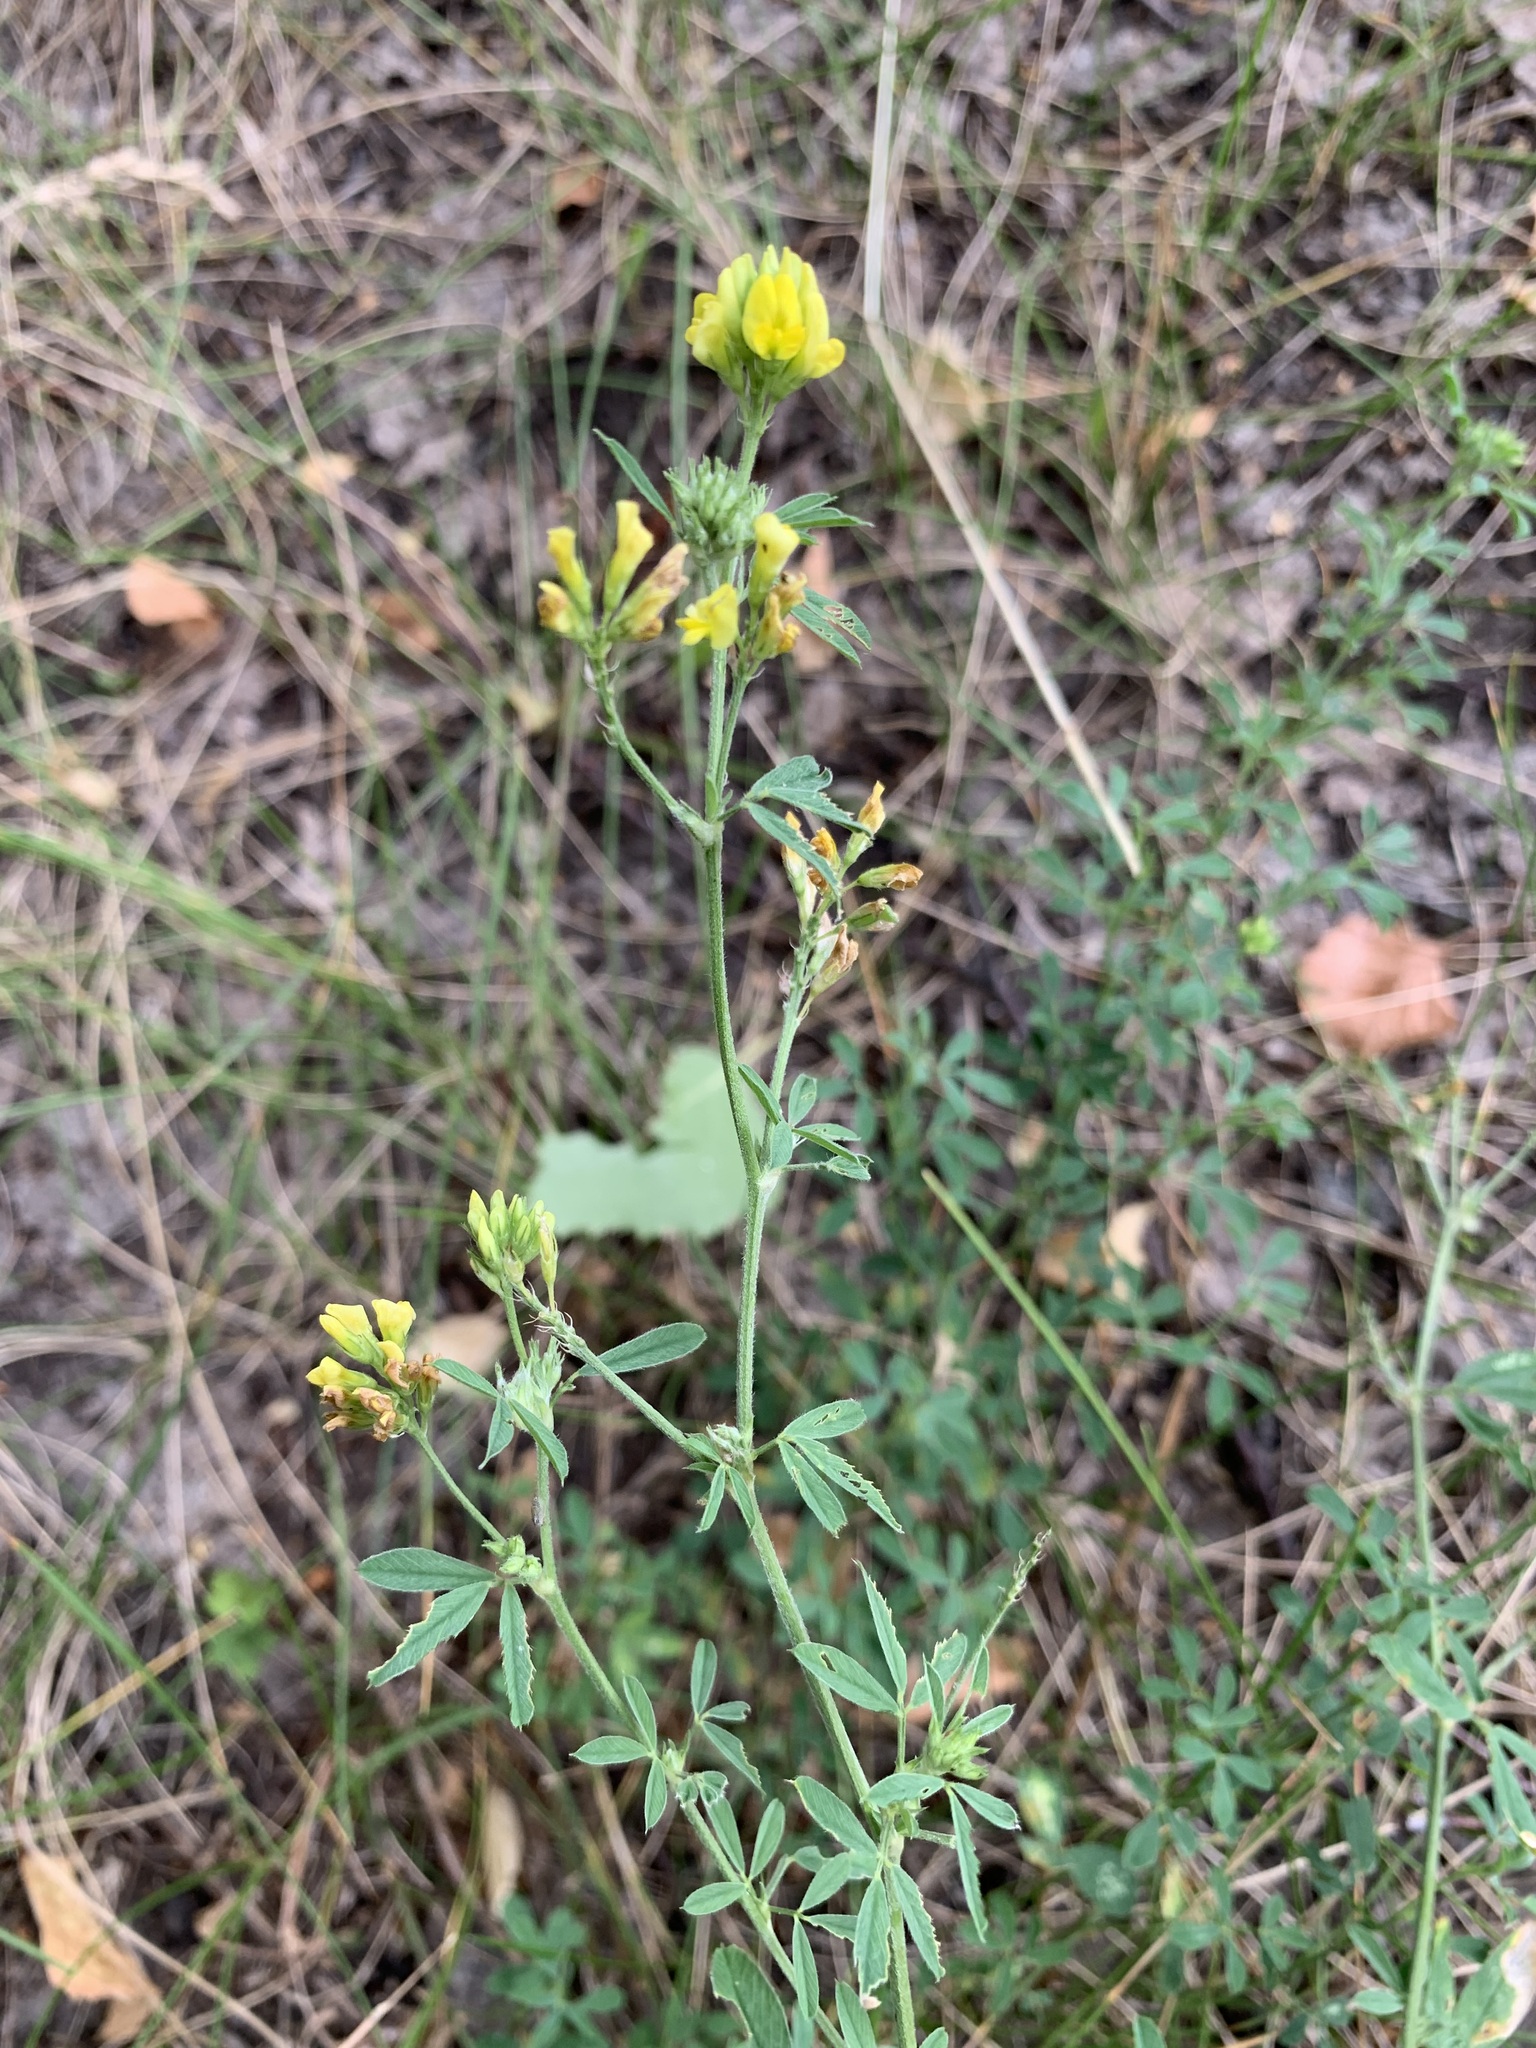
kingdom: Plantae
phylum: Tracheophyta
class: Magnoliopsida
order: Fabales
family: Fabaceae
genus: Medicago
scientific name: Medicago falcata
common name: Sickle medick
